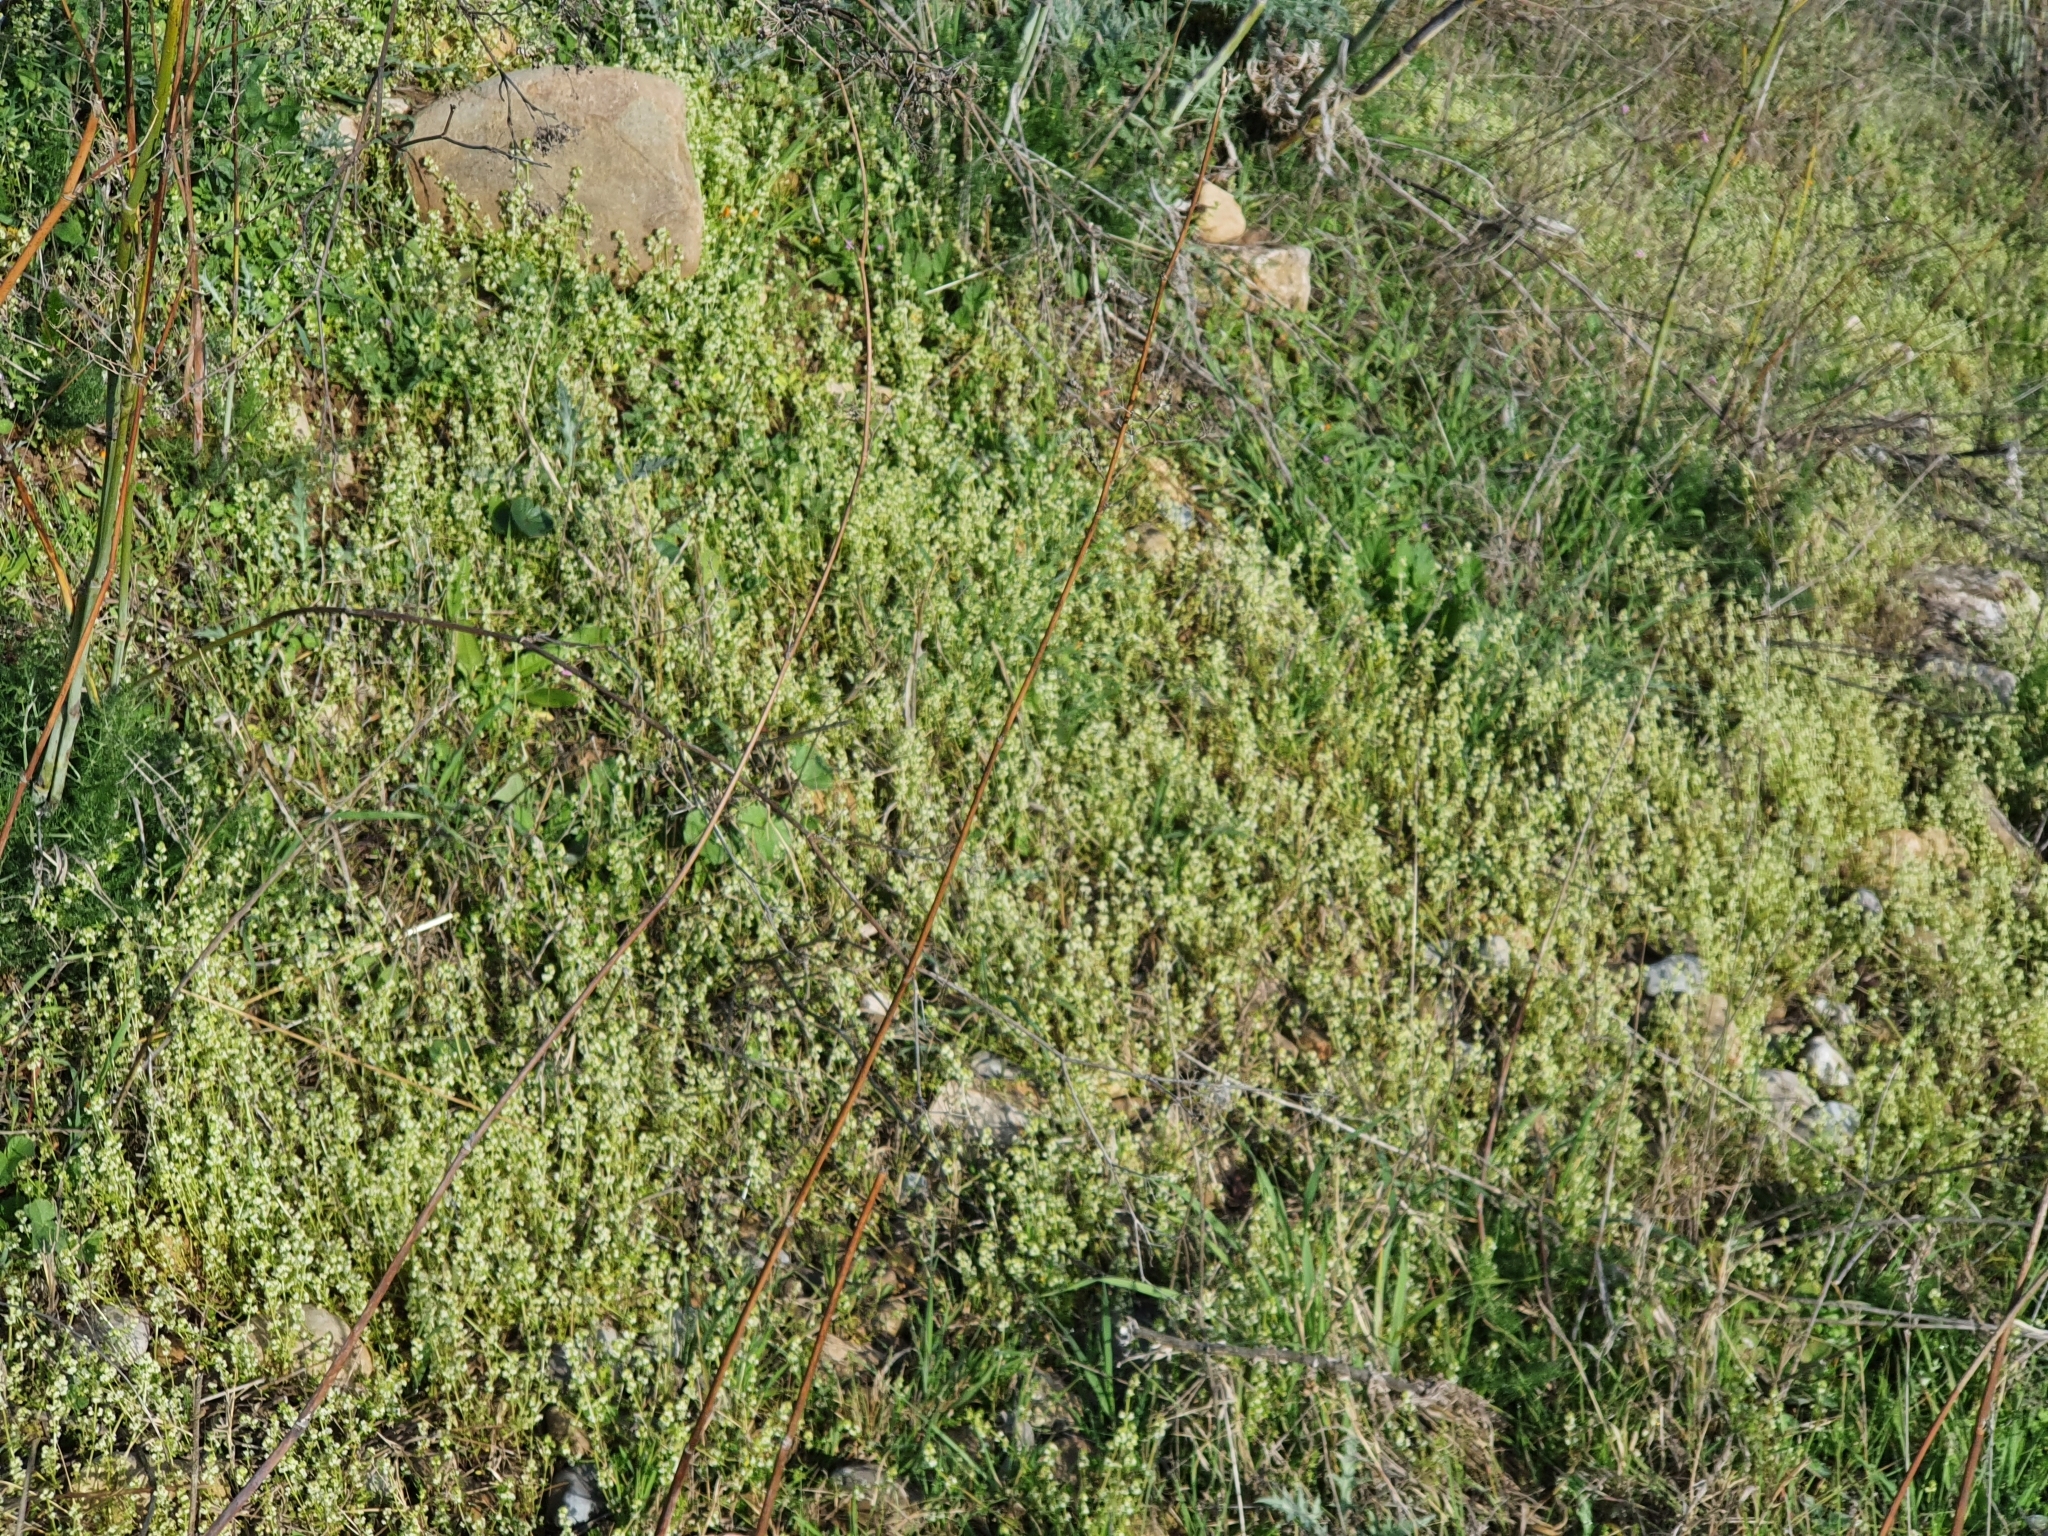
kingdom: Plantae
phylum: Tracheophyta
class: Magnoliopsida
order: Gentianales
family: Rubiaceae
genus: Galium
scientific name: Galium verrucosum
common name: Warty bedstraw
